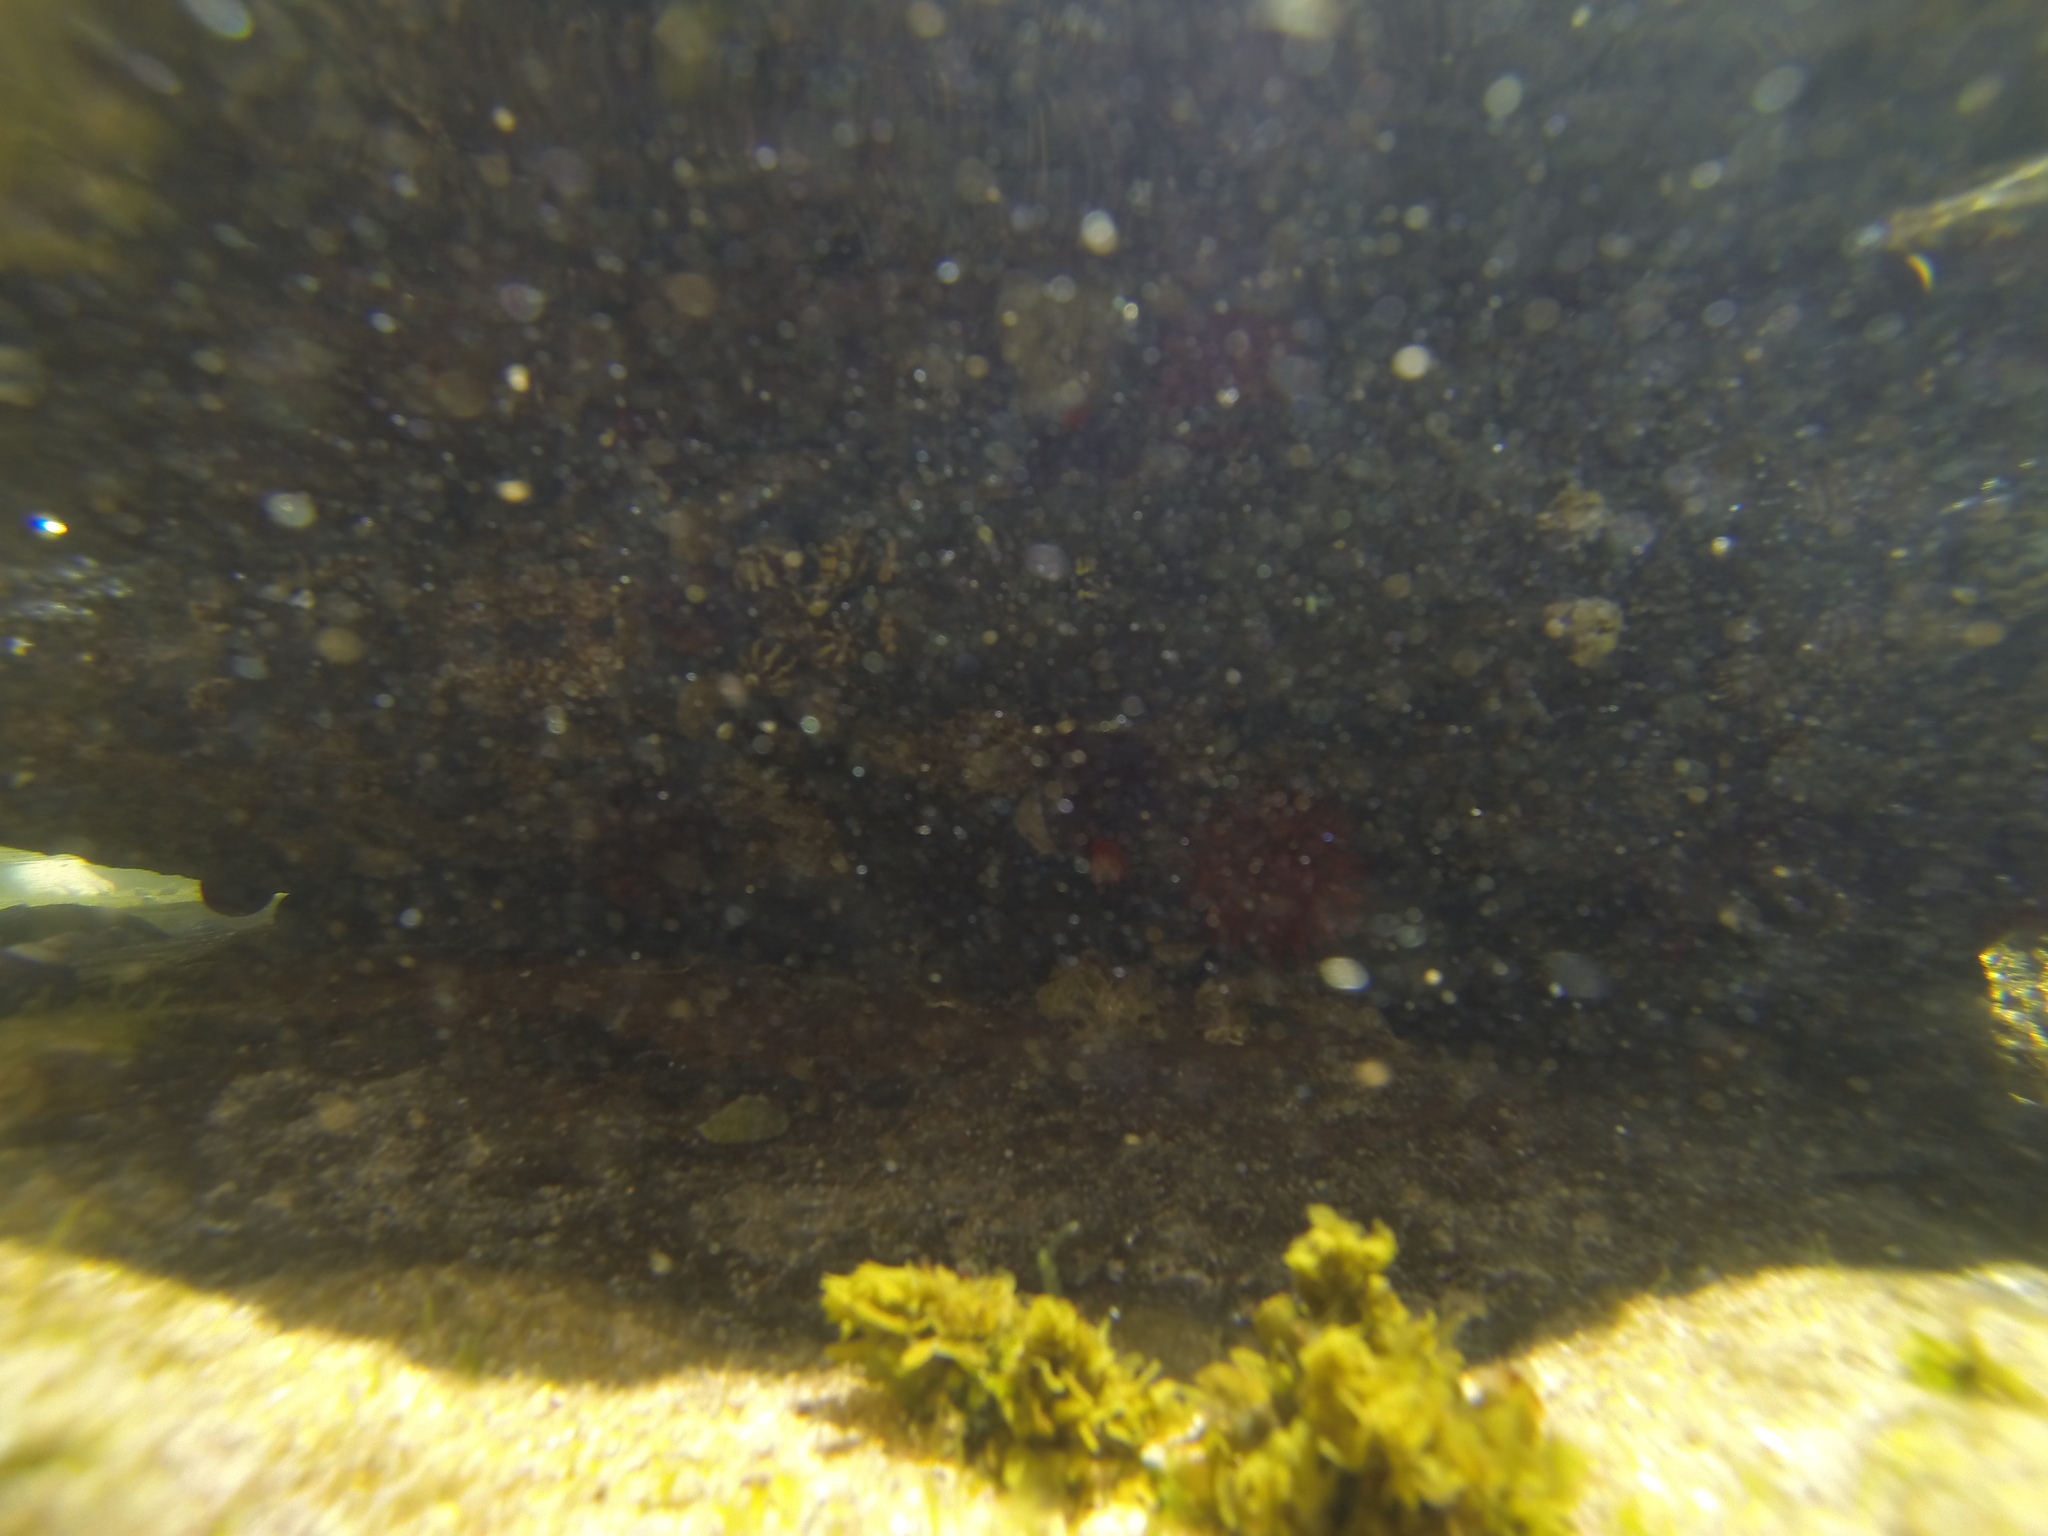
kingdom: Animalia
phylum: Mollusca
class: Gastropoda
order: Trochida
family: Trochidae
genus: Austrocochlea
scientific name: Austrocochlea porcata
